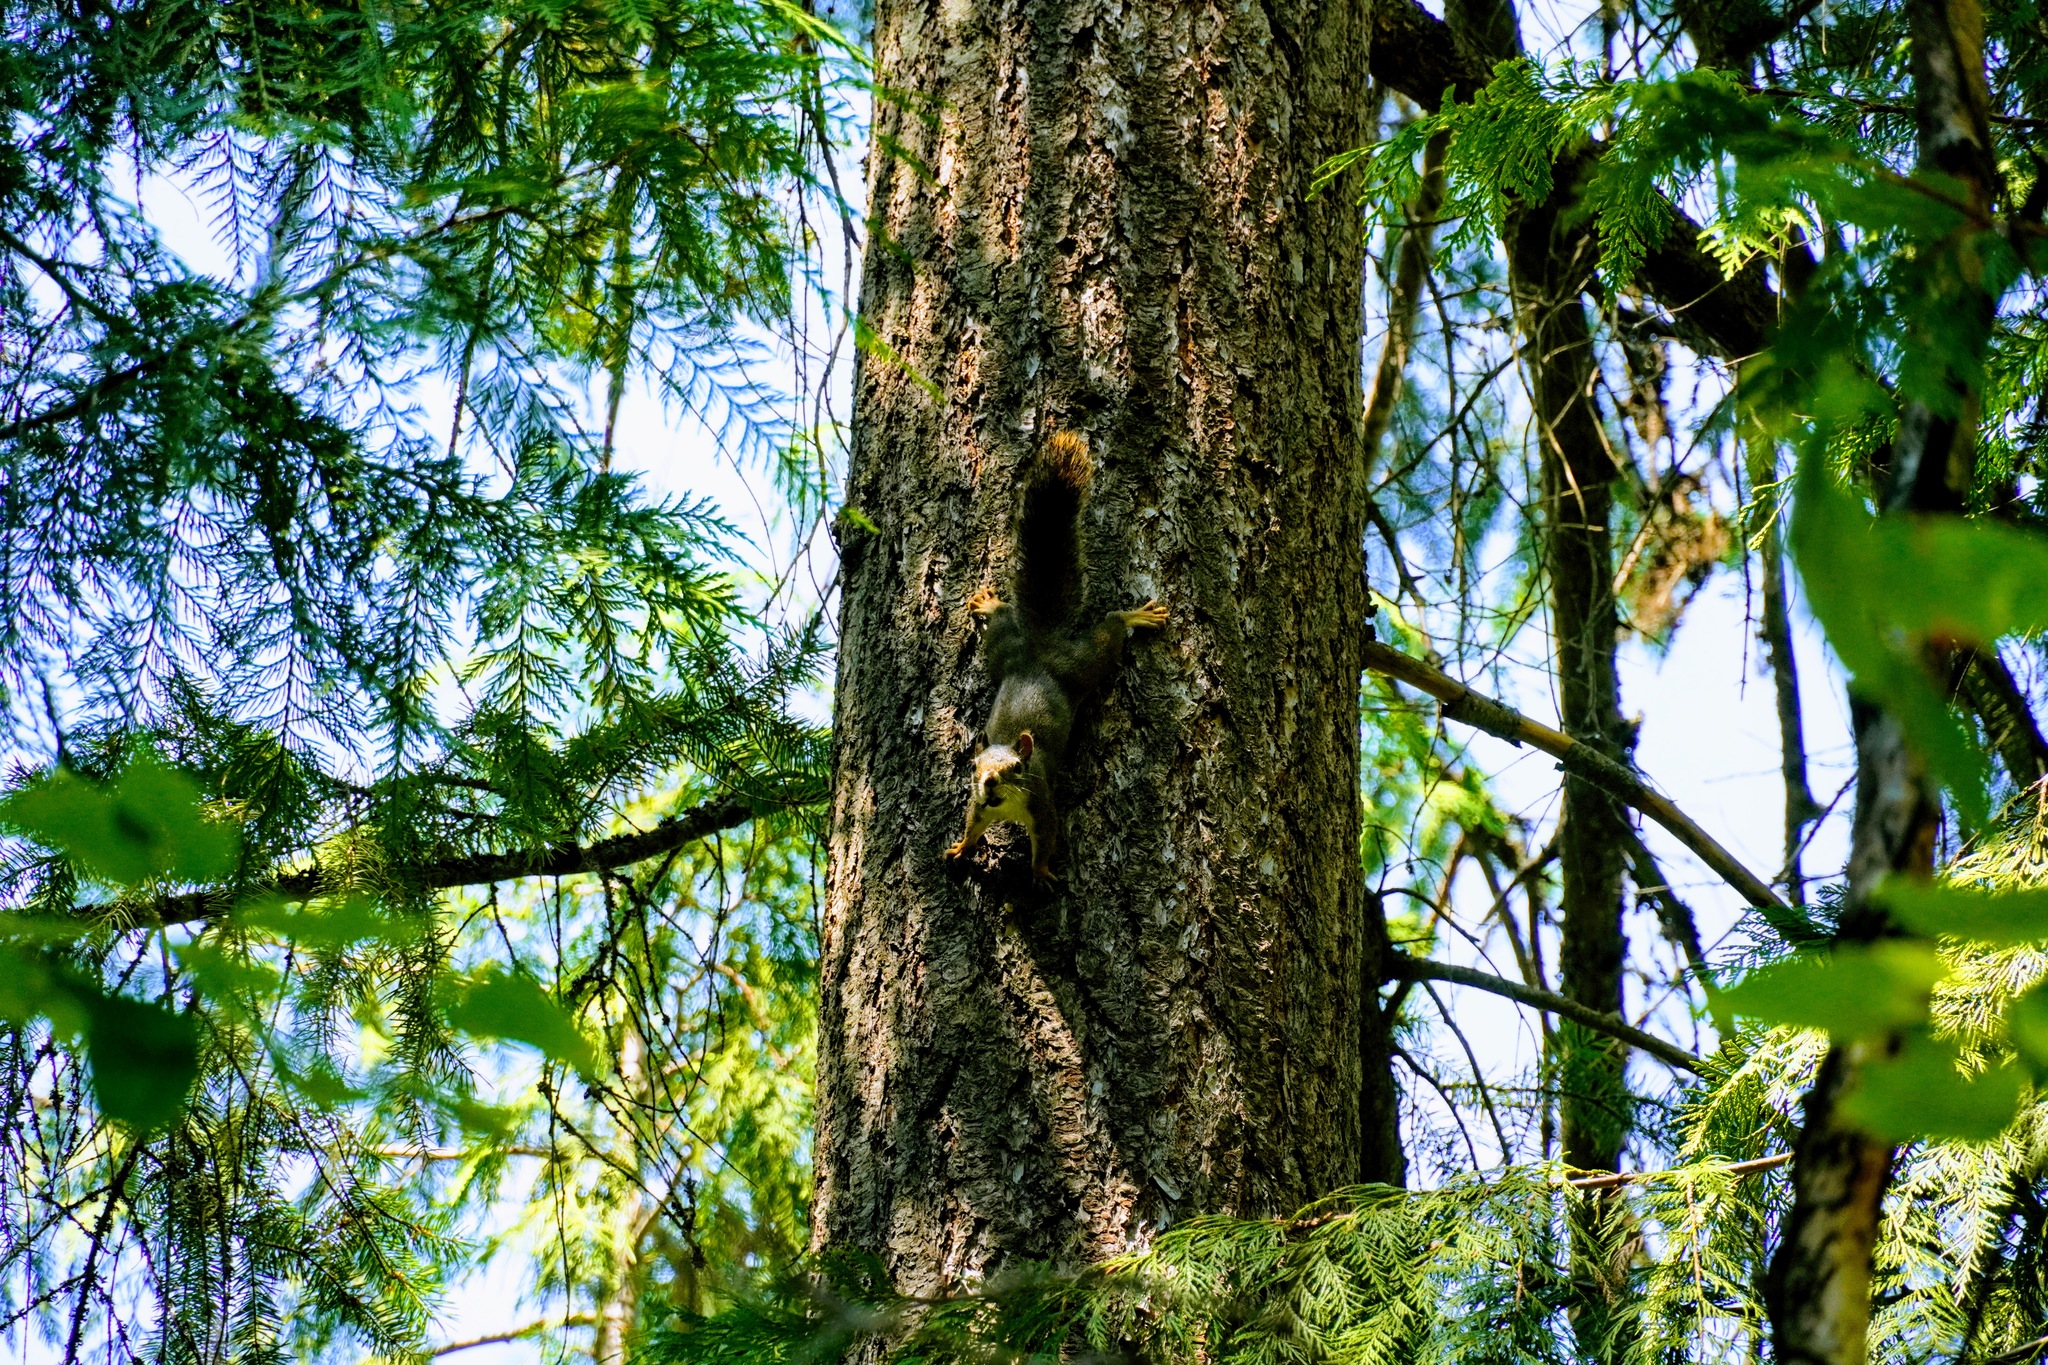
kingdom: Animalia
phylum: Chordata
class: Mammalia
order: Rodentia
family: Sciuridae
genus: Tamiasciurus
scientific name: Tamiasciurus hudsonicus
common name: Red squirrel
